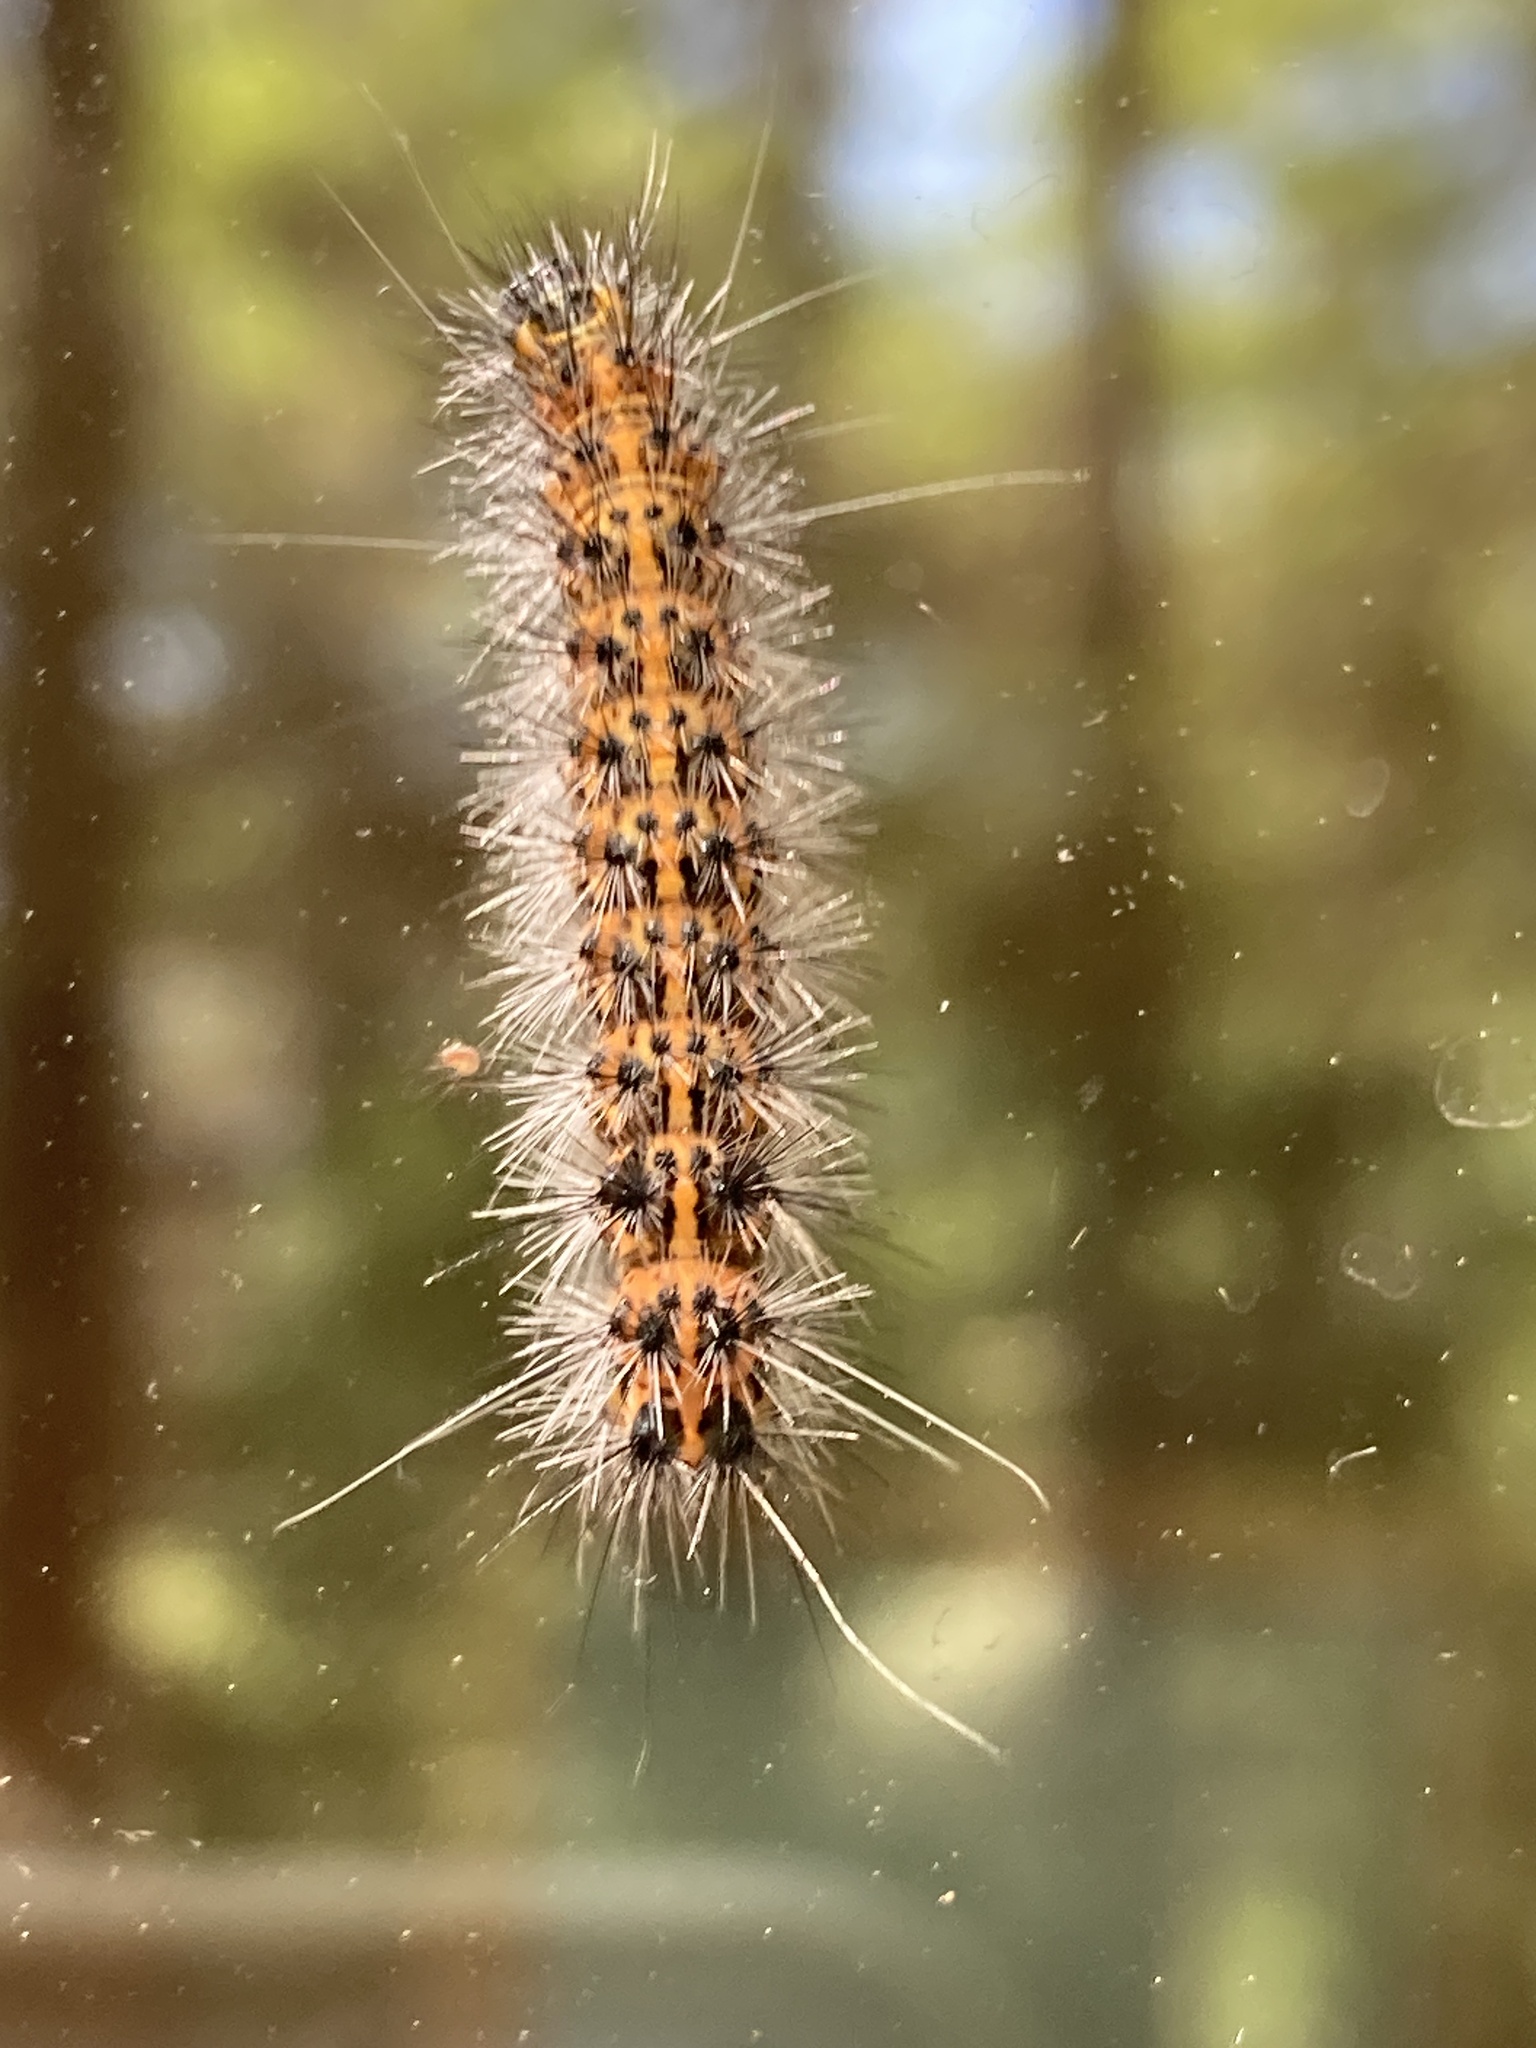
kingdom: Animalia
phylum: Arthropoda
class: Insecta
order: Lepidoptera
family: Erebidae
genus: Spilosoma
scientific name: Spilosoma dubia
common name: Dubious tiger moth
